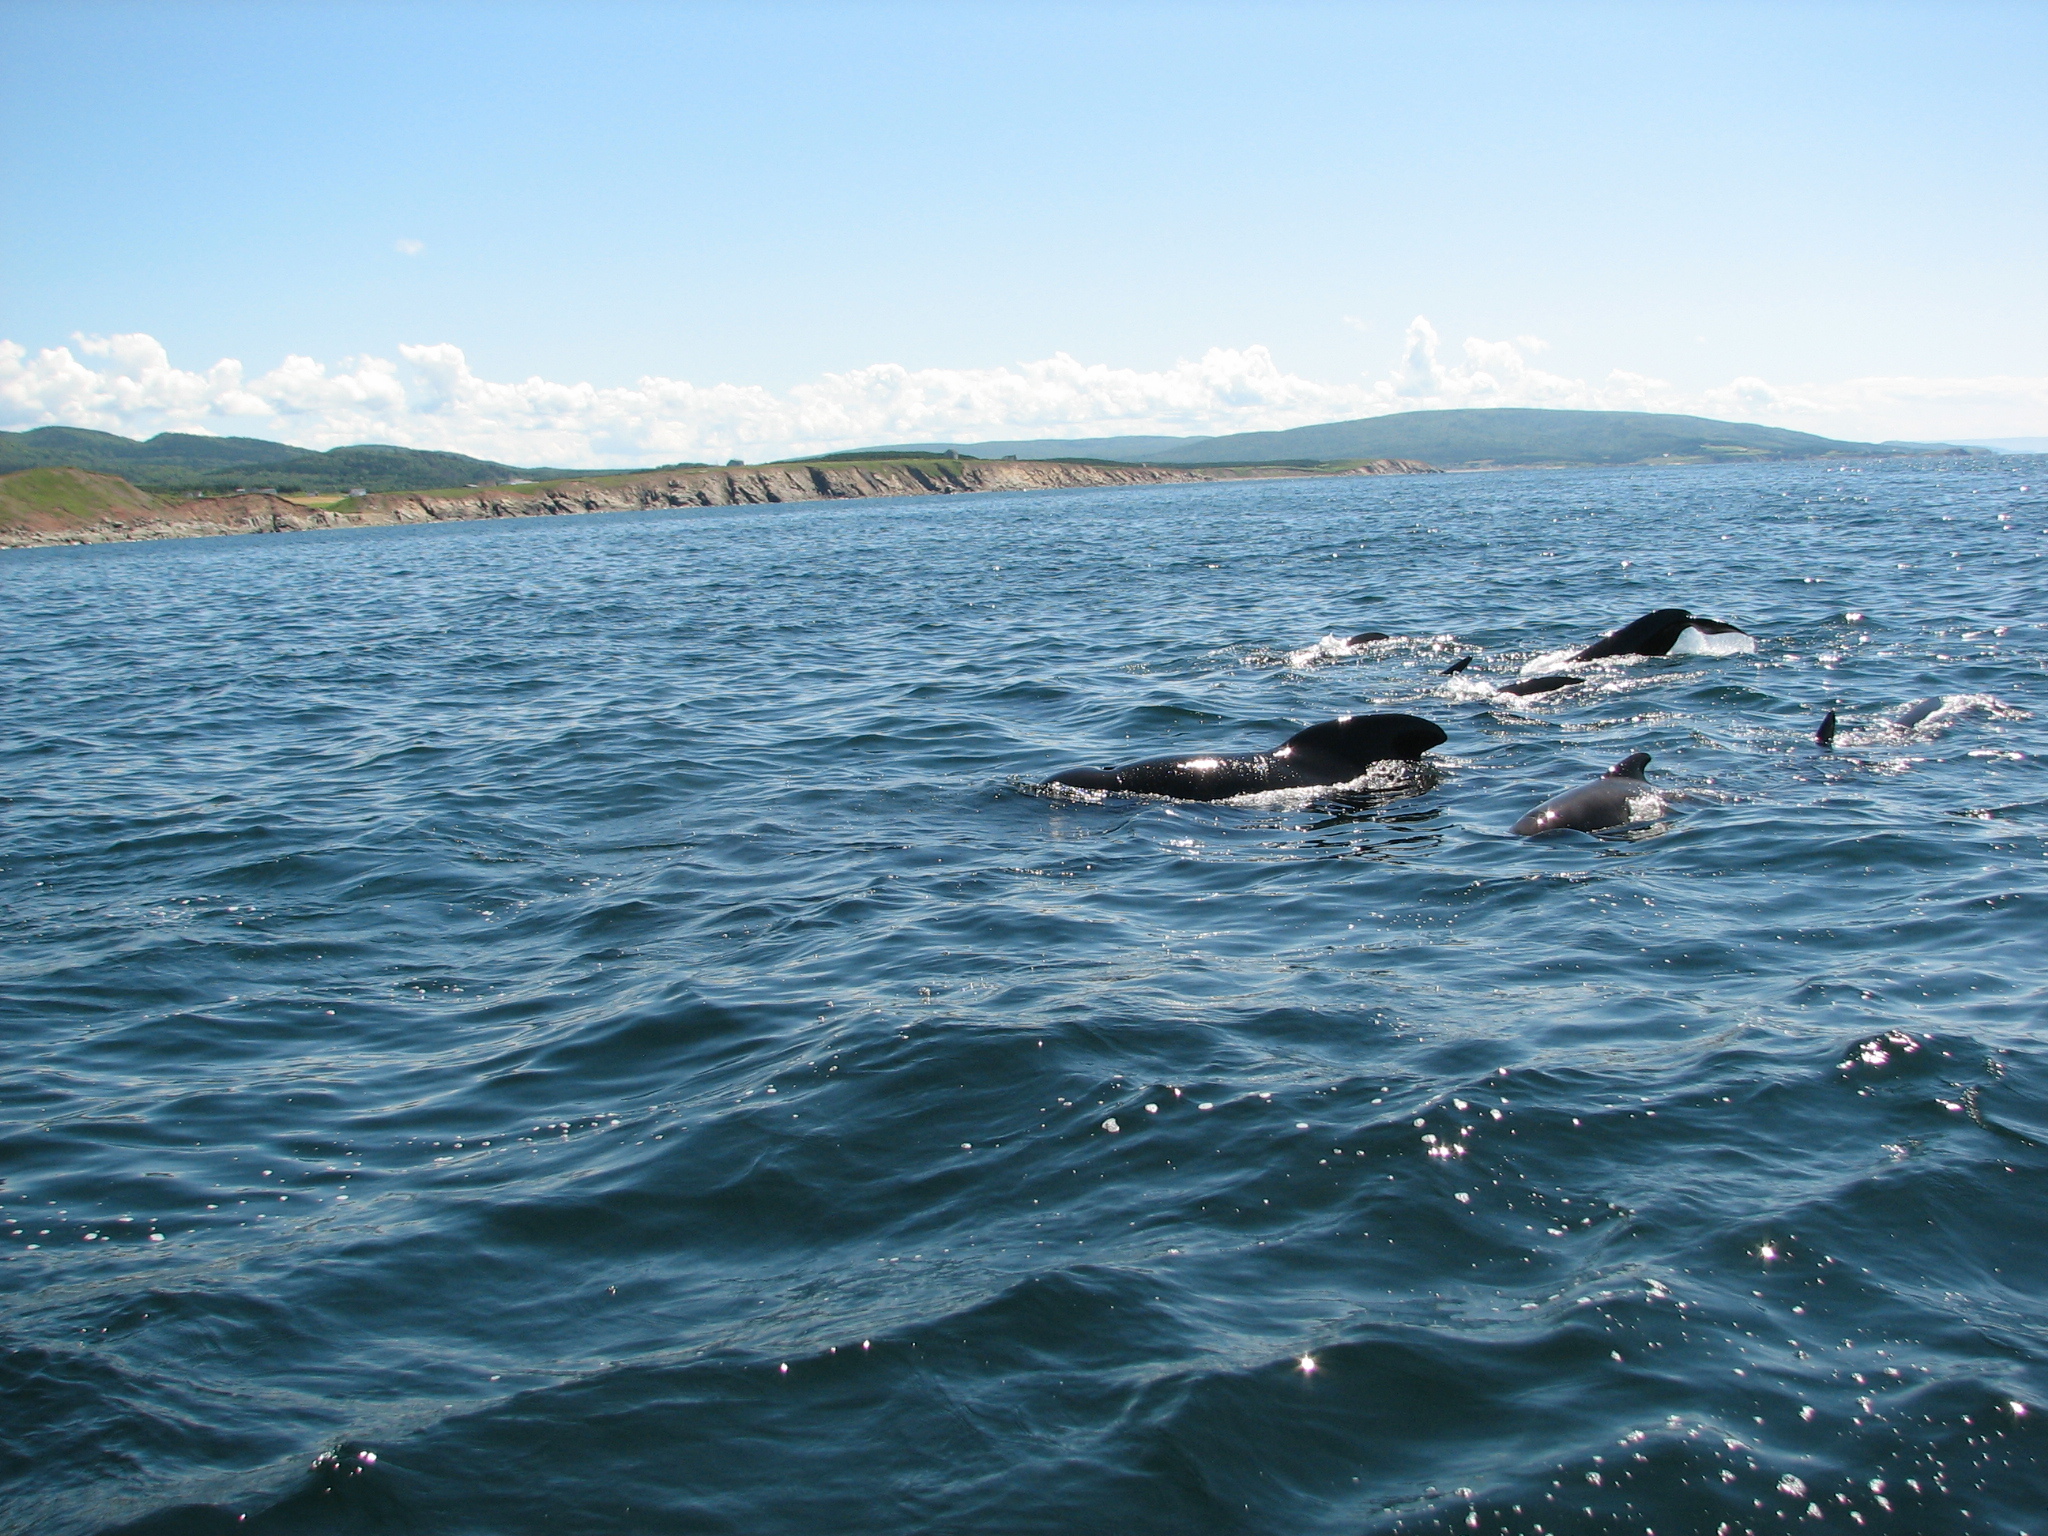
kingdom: Animalia
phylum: Chordata
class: Mammalia
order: Cetacea
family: Delphinidae
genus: Globicephala
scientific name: Globicephala melas
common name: Long-finned pilot whale
